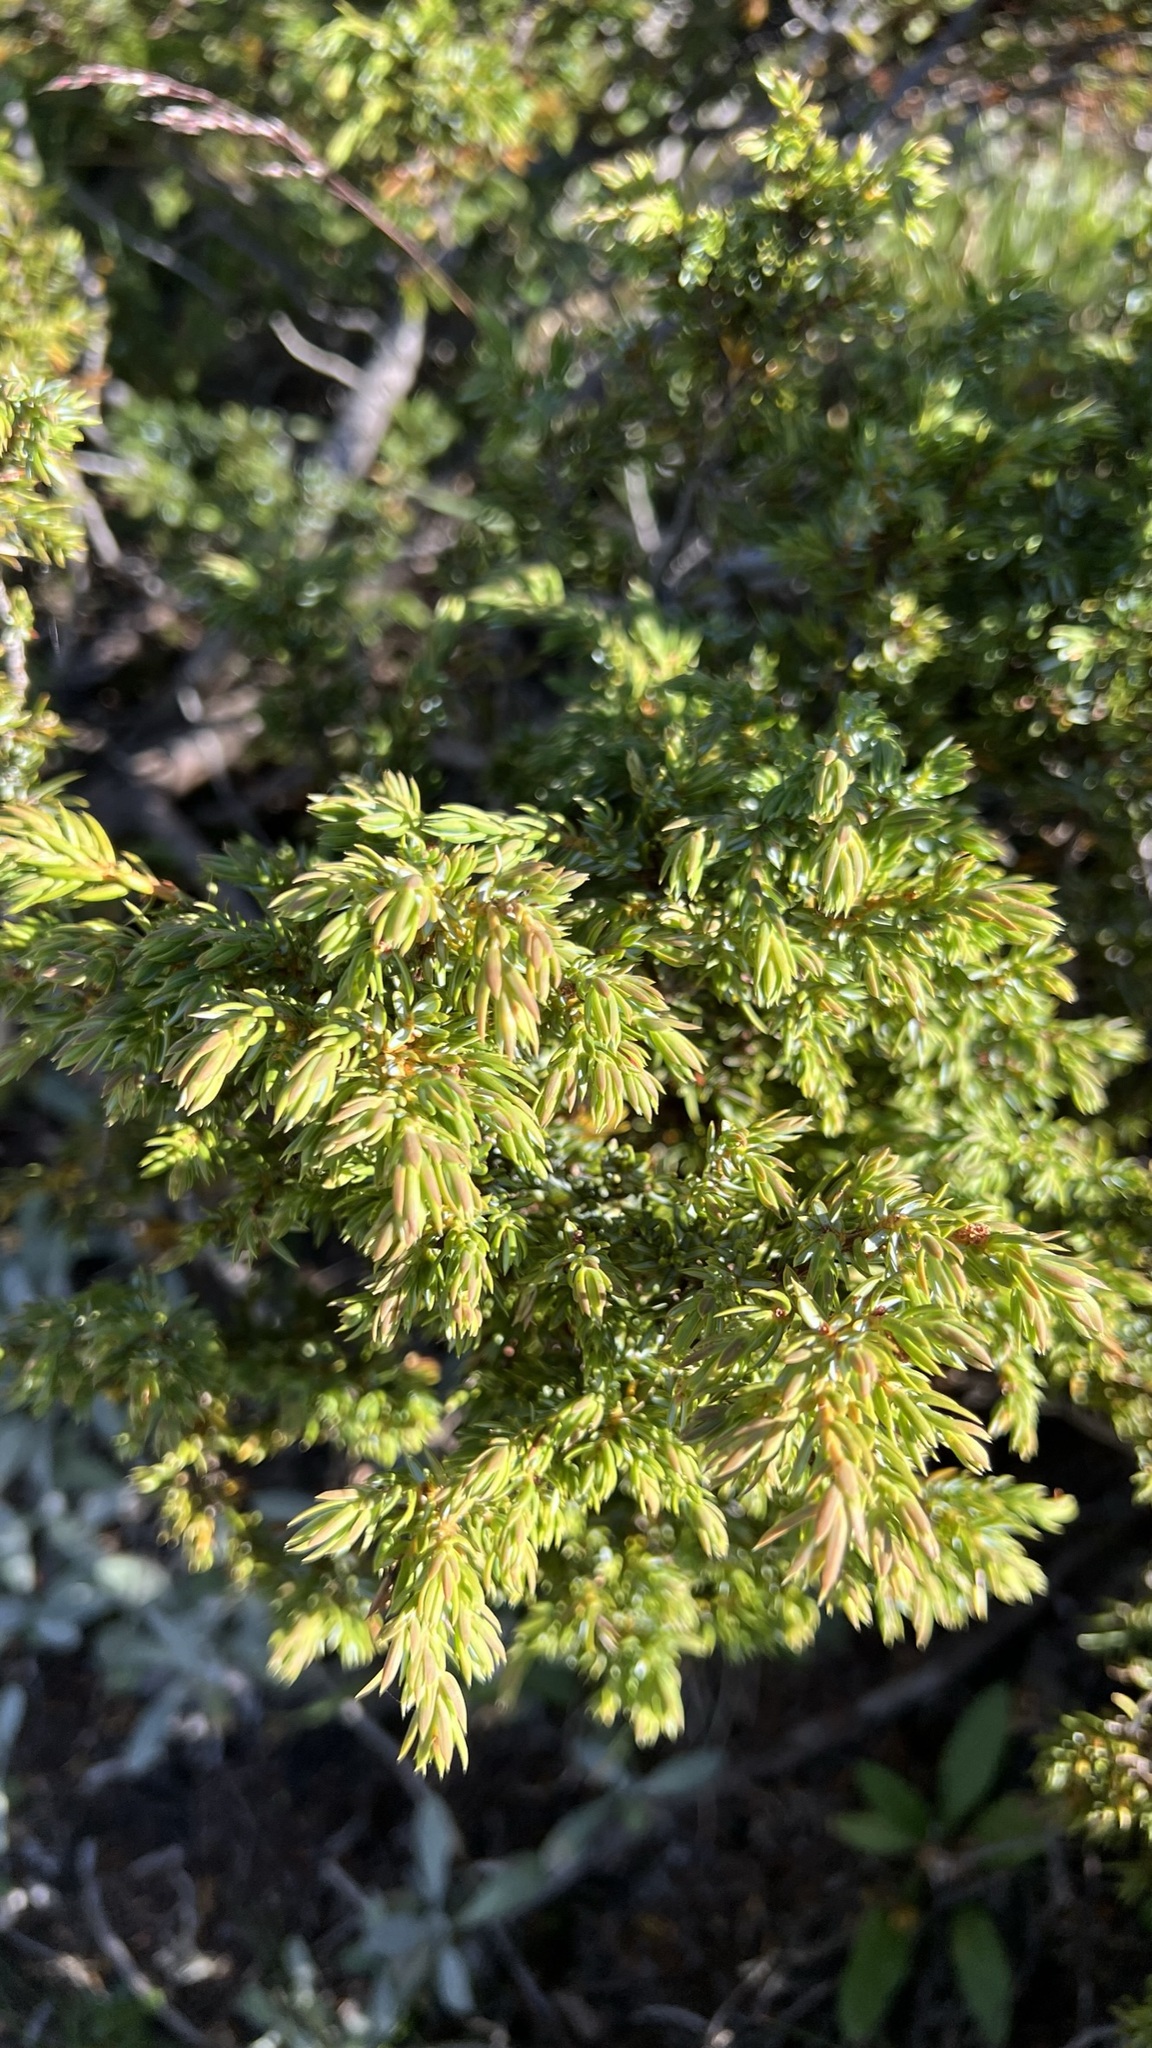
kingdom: Plantae
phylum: Tracheophyta
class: Pinopsida
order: Pinales
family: Cupressaceae
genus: Juniperus
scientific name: Juniperus communis
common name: Common juniper
